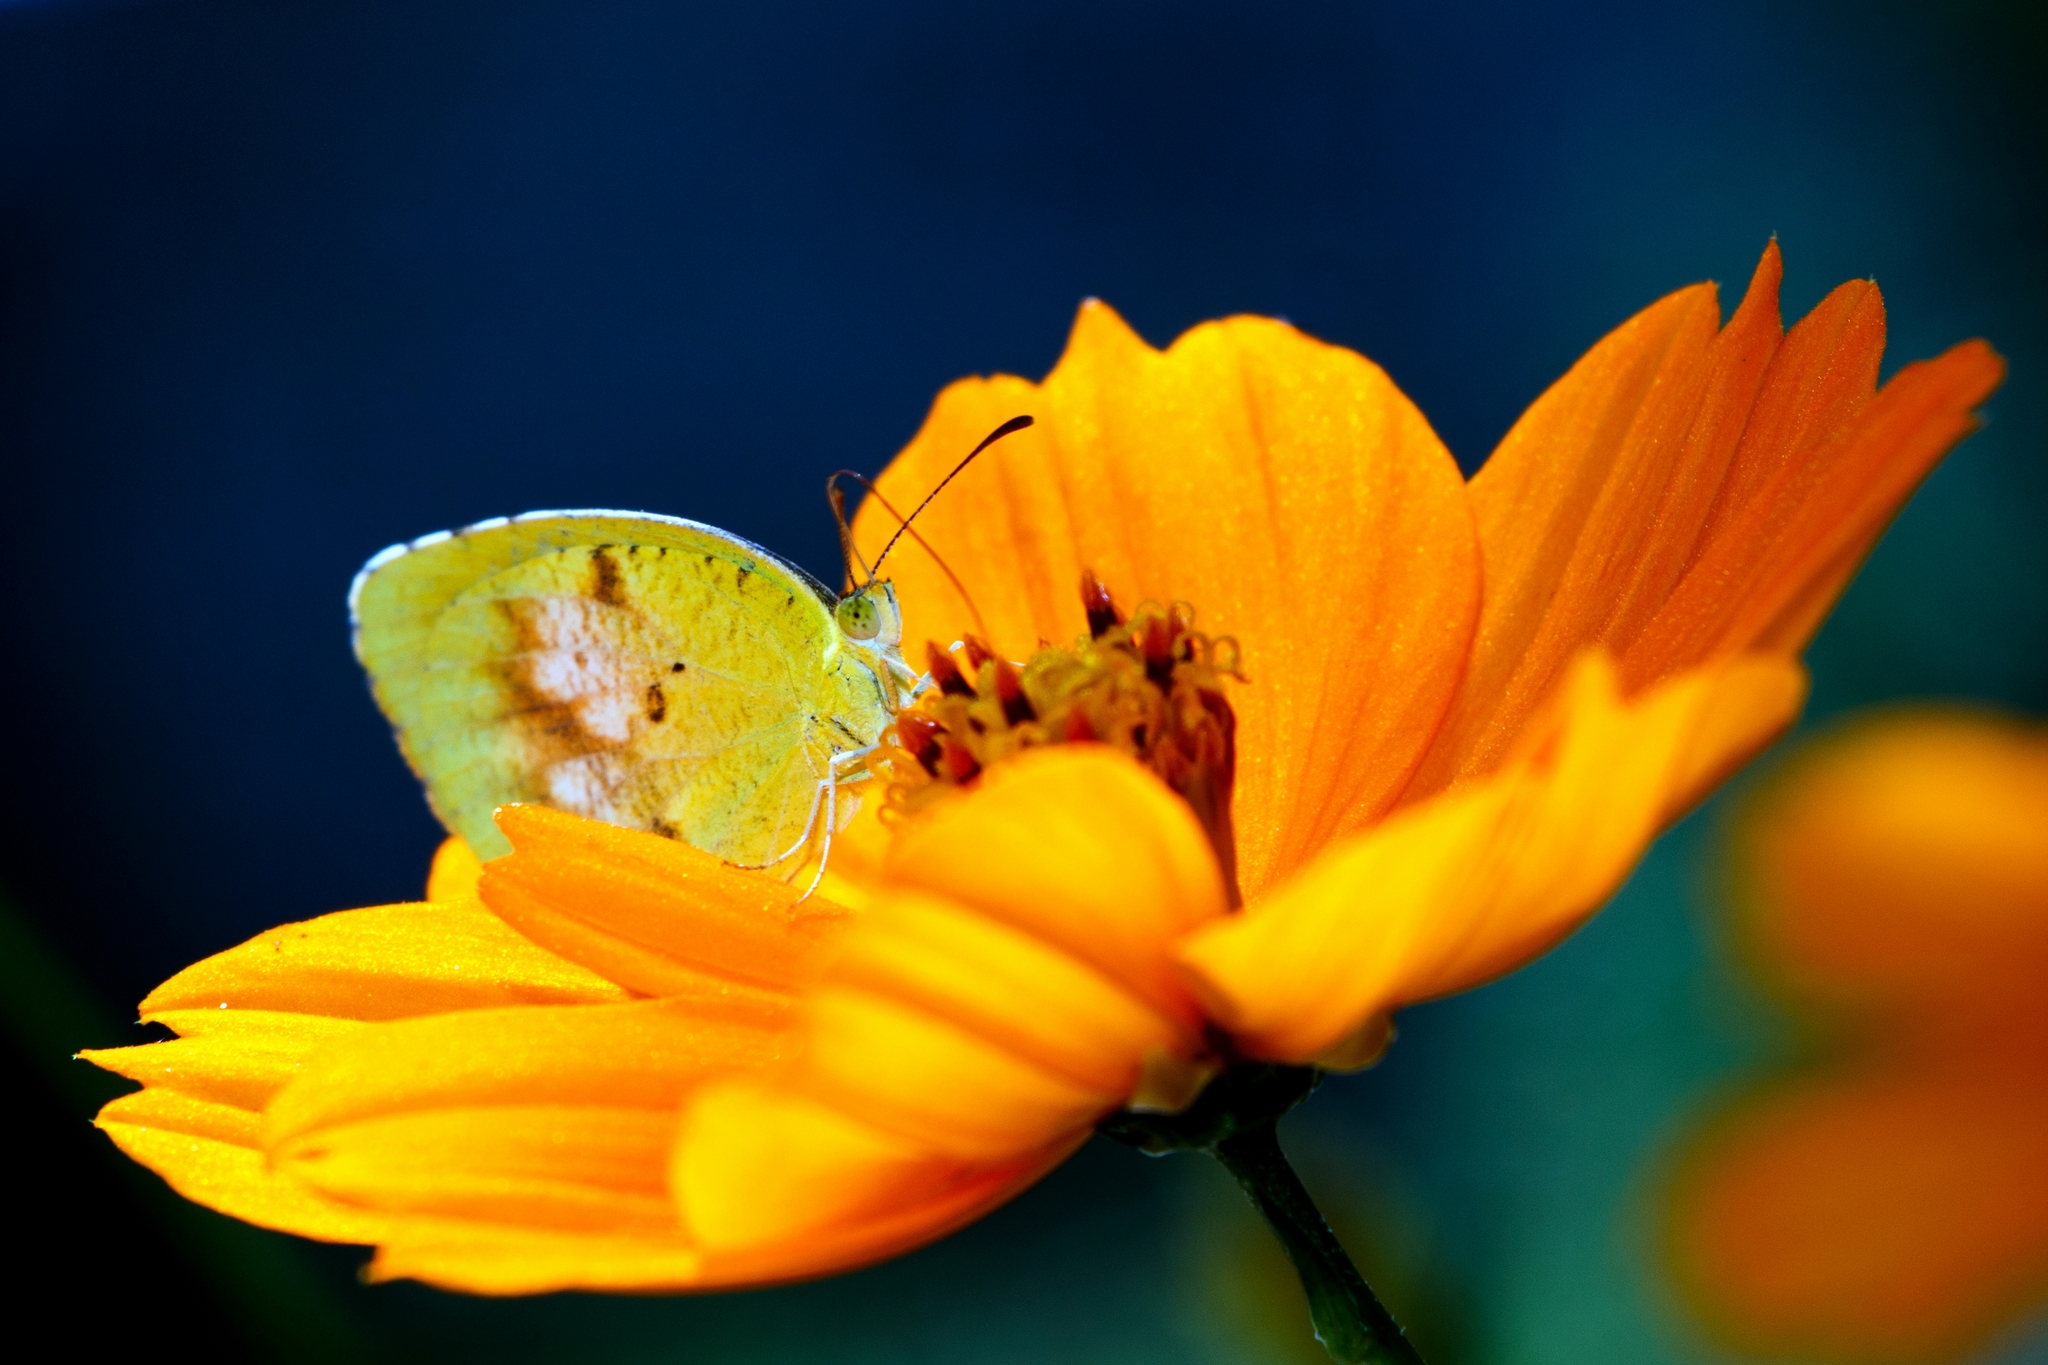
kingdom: Animalia
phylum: Arthropoda
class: Insecta
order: Lepidoptera
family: Pieridae
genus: Abaeis
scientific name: Abaeis nicippe
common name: Sleepy orange
